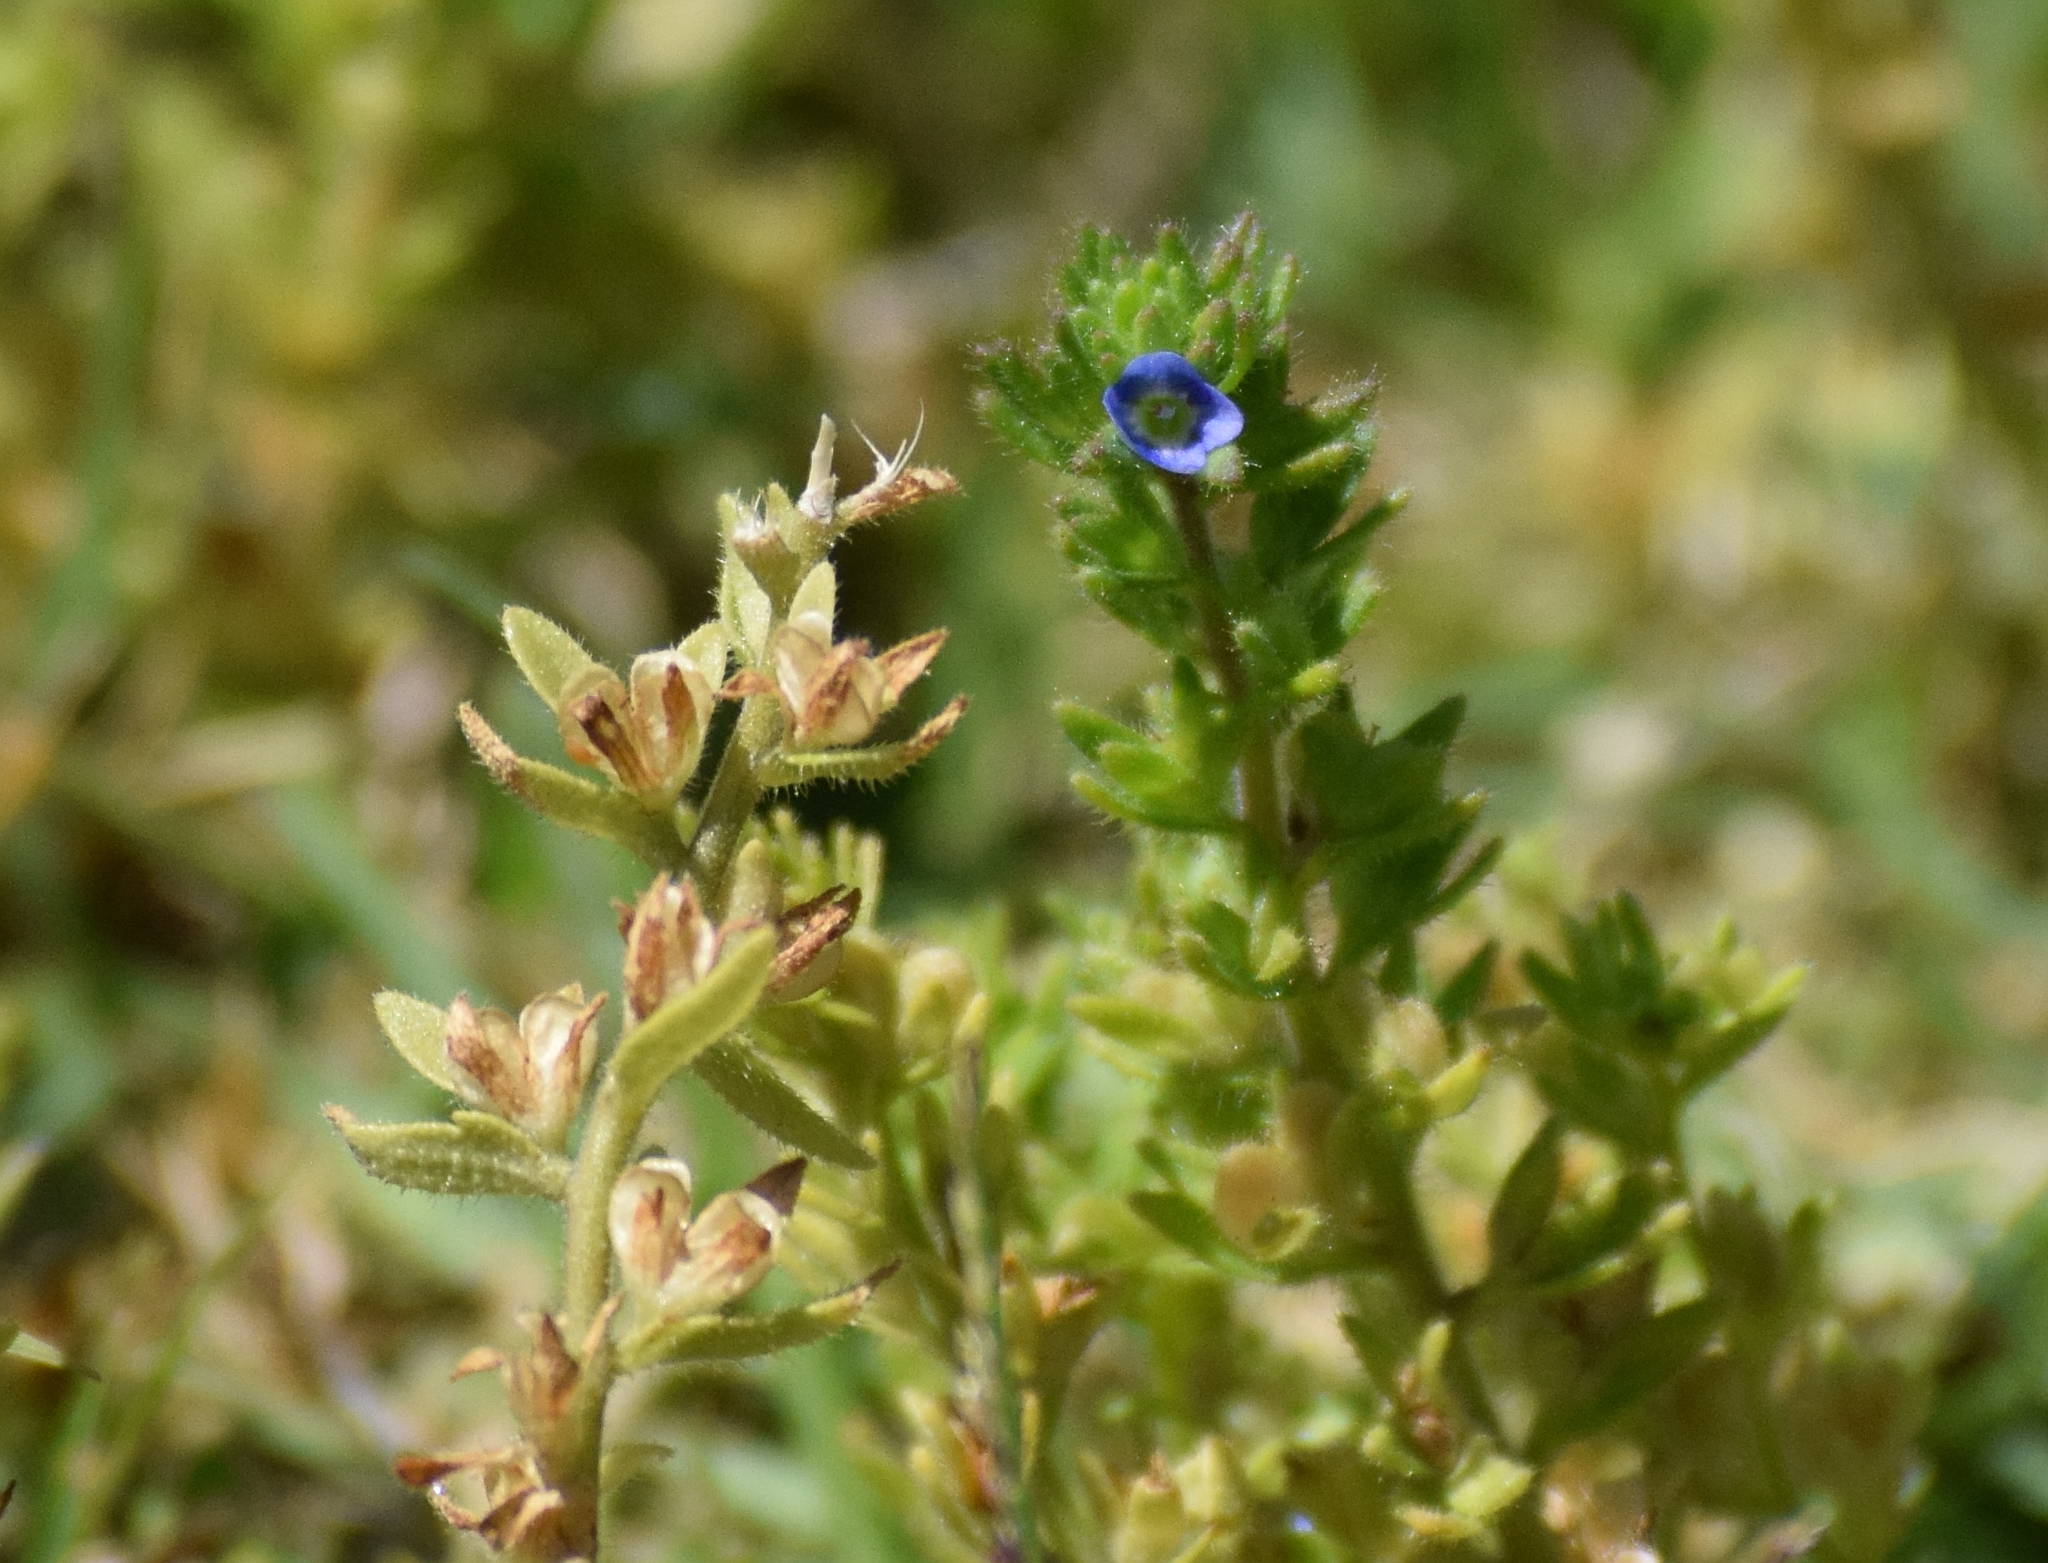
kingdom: Plantae
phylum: Tracheophyta
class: Magnoliopsida
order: Lamiales
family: Plantaginaceae
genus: Veronica
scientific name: Veronica arvensis
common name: Corn speedwell
